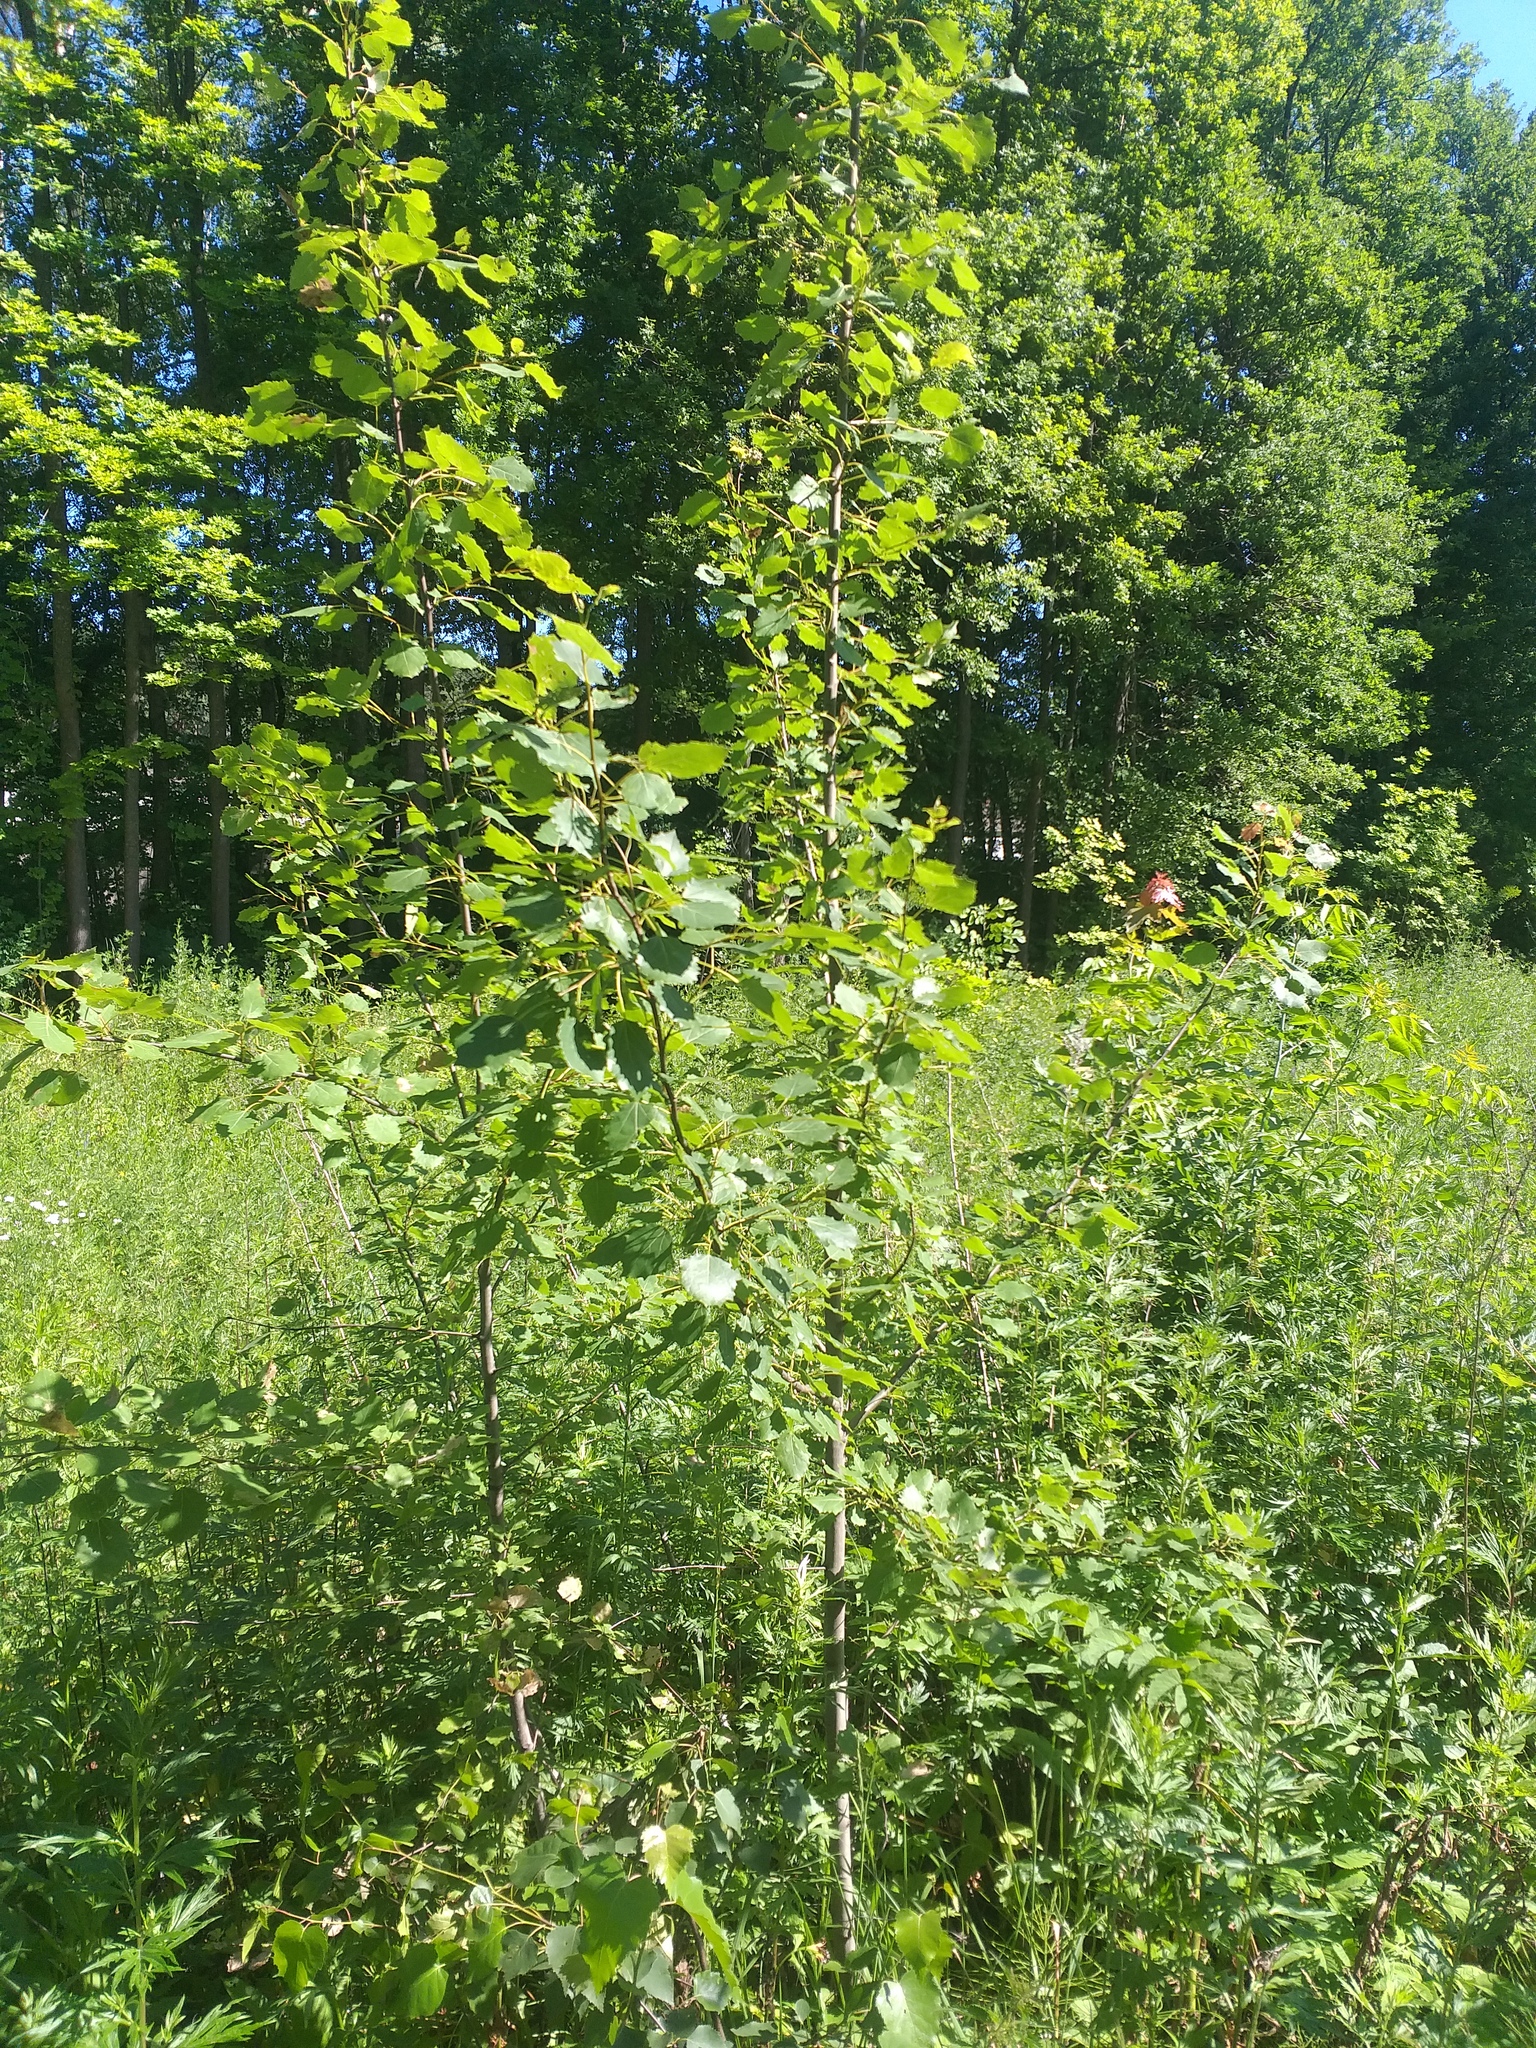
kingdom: Plantae
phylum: Tracheophyta
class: Magnoliopsida
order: Malpighiales
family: Salicaceae
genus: Populus
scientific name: Populus tremula
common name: European aspen
